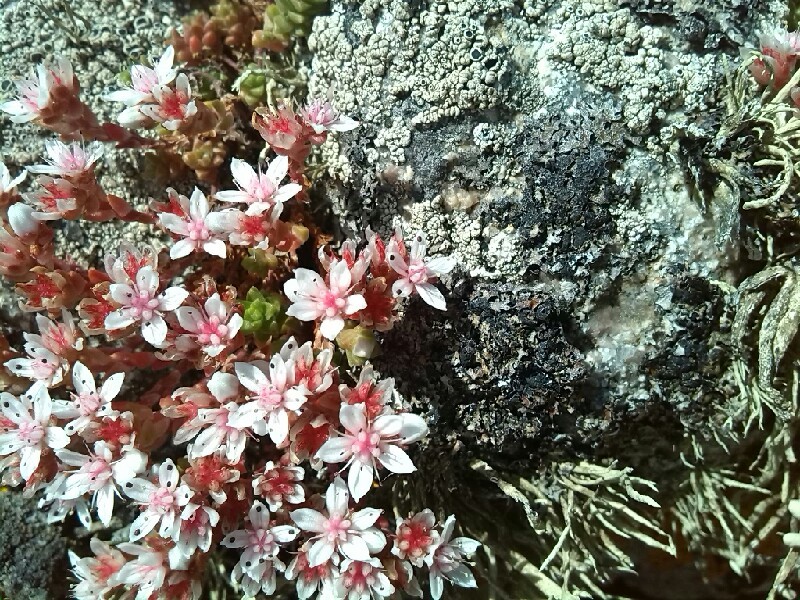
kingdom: Plantae
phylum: Tracheophyta
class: Magnoliopsida
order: Saxifragales
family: Crassulaceae
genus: Sedum
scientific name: Sedum anglicum
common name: English stonecrop
